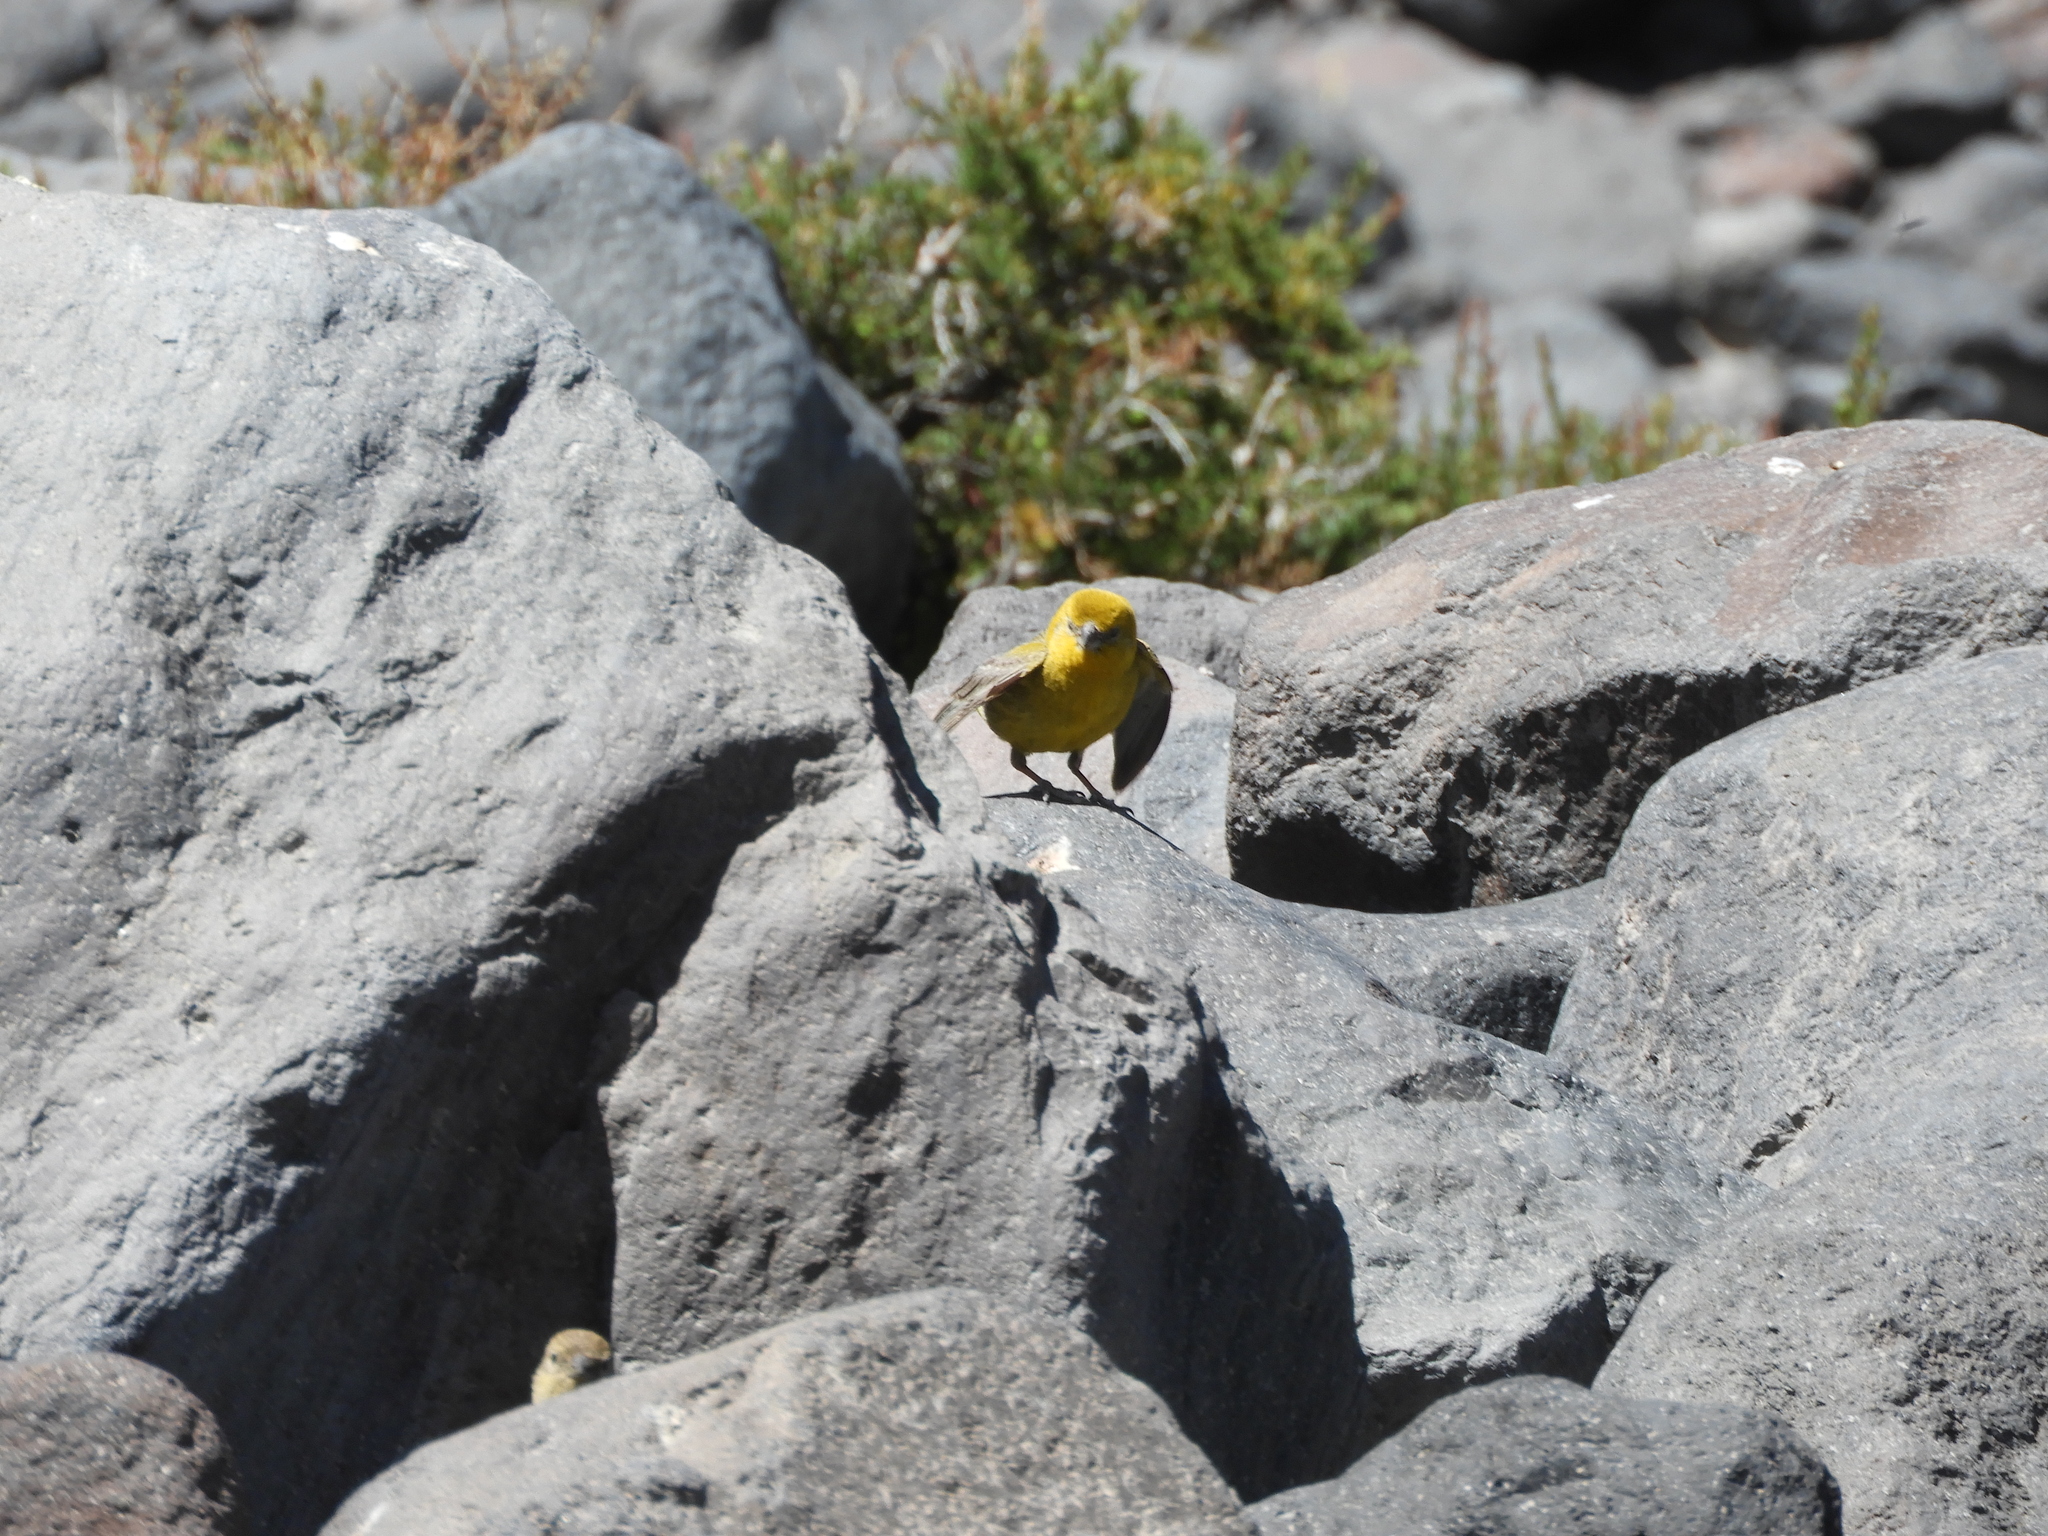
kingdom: Animalia
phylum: Chordata
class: Aves
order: Passeriformes
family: Thraupidae
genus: Sicalis
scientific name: Sicalis auriventris
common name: Greater yellow finch
